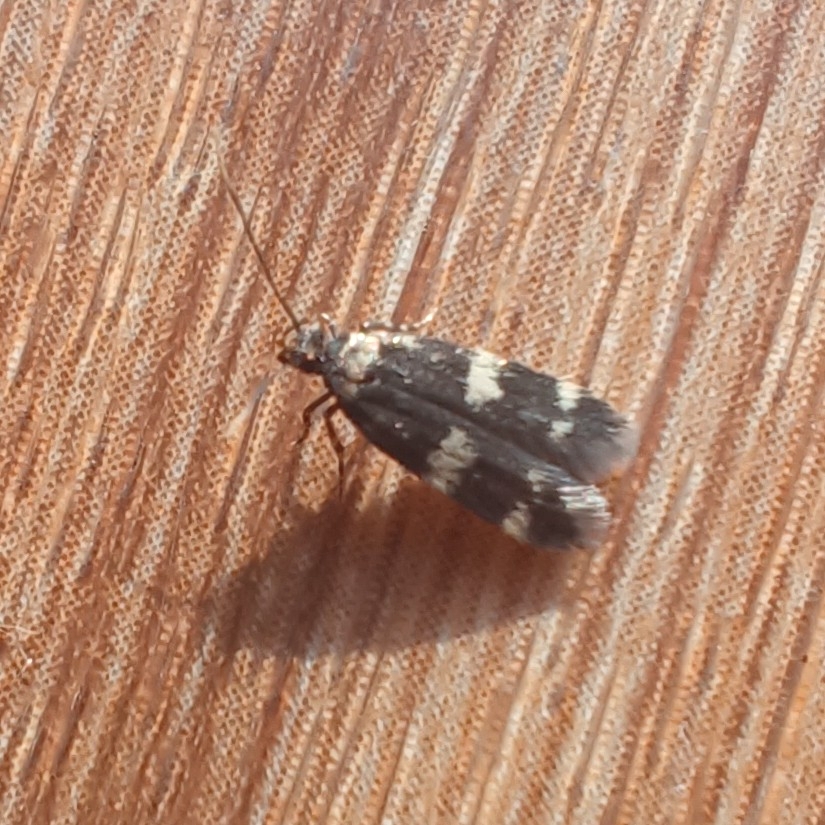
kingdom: Animalia
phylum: Arthropoda
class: Insecta
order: Lepidoptera
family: Autostichidae
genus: Oegoconia
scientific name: Oegoconia quadripuncta
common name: Four-spotted obscure
